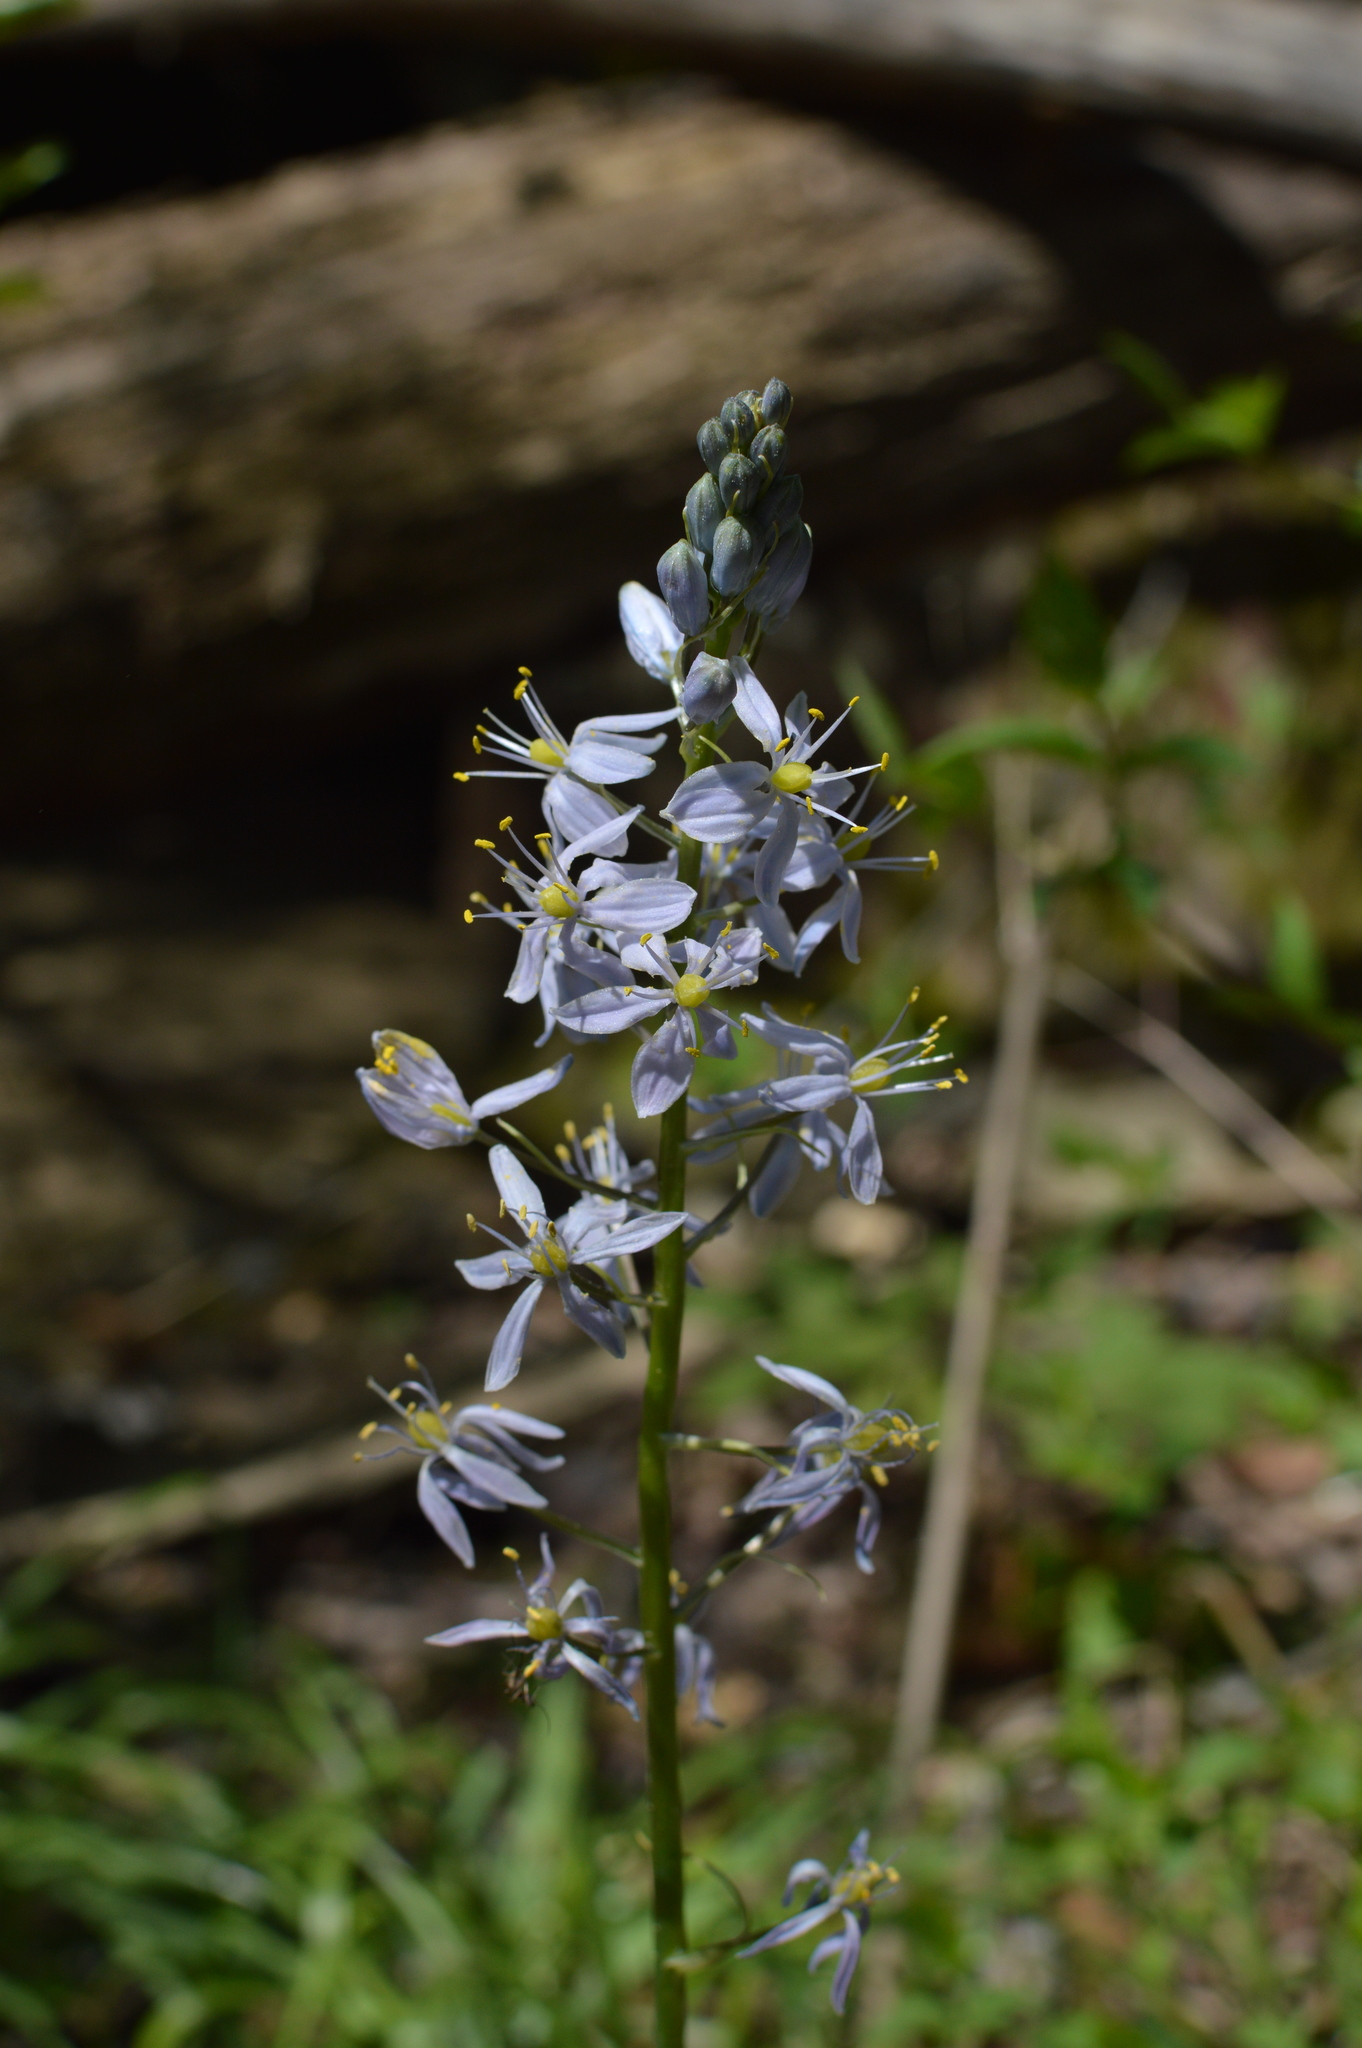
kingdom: Plantae
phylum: Tracheophyta
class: Liliopsida
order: Asparagales
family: Asparagaceae
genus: Camassia
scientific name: Camassia scilloides
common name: Wild hyacinth
